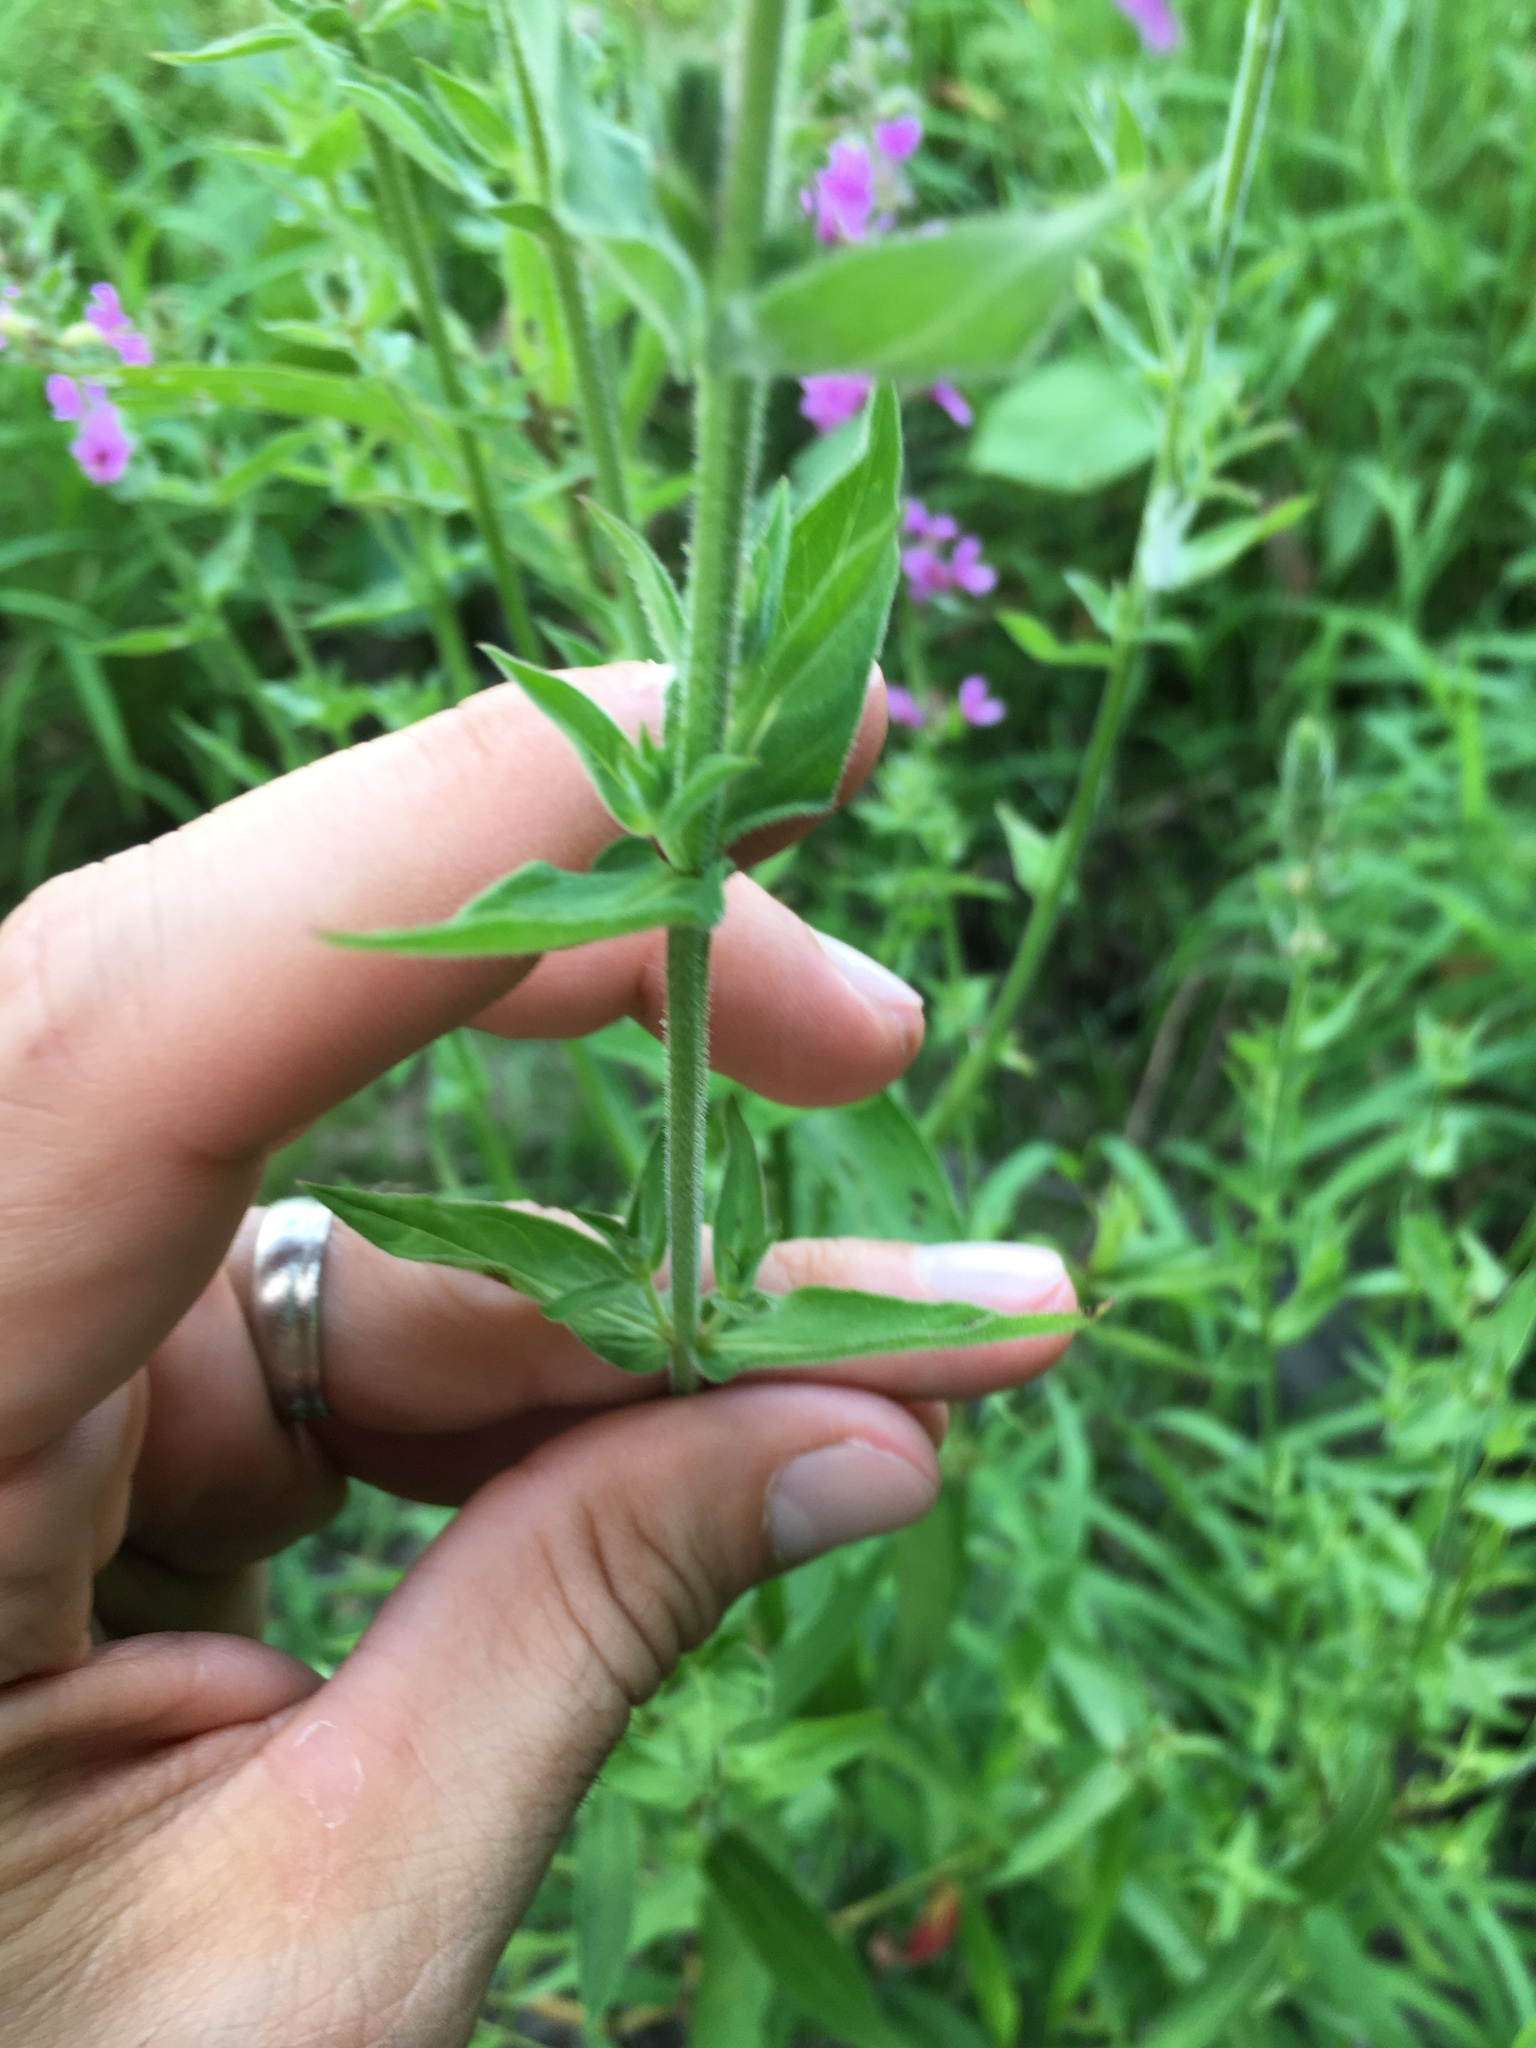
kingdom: Plantae
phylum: Tracheophyta
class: Magnoliopsida
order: Myrtales
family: Lythraceae
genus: Lythrum
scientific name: Lythrum salicaria
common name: Purple loosestrife
